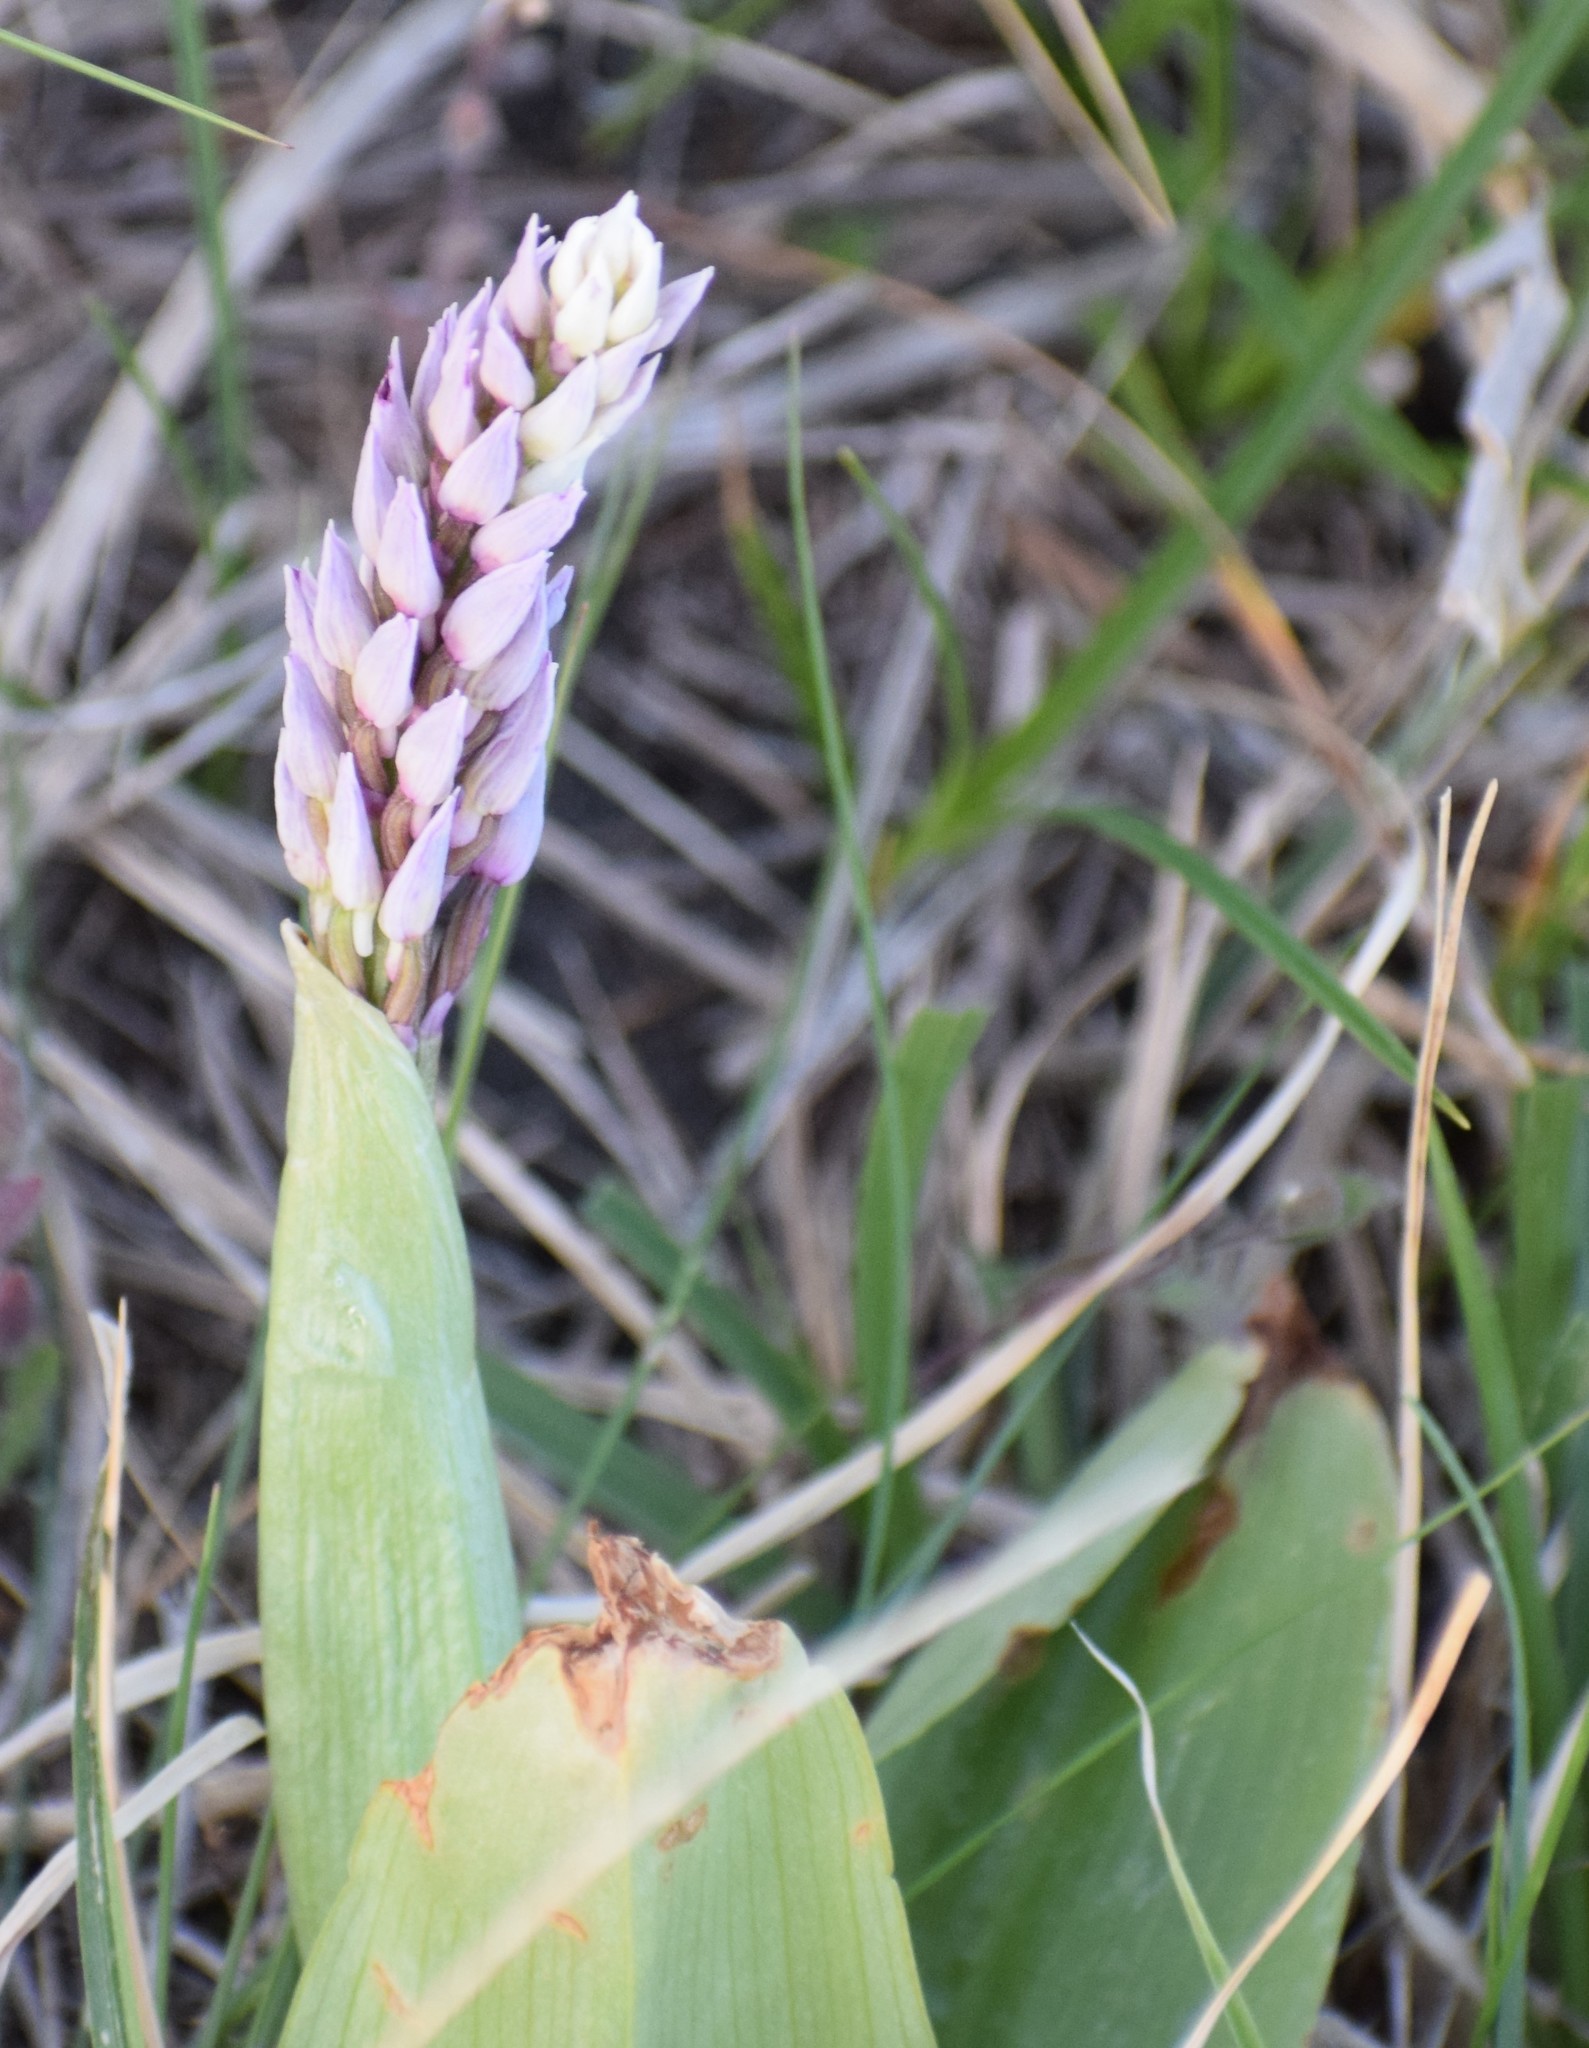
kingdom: Plantae
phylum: Tracheophyta
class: Liliopsida
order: Asparagales
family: Orchidaceae
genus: Orchis
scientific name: Orchis militaris
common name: Military orchid
